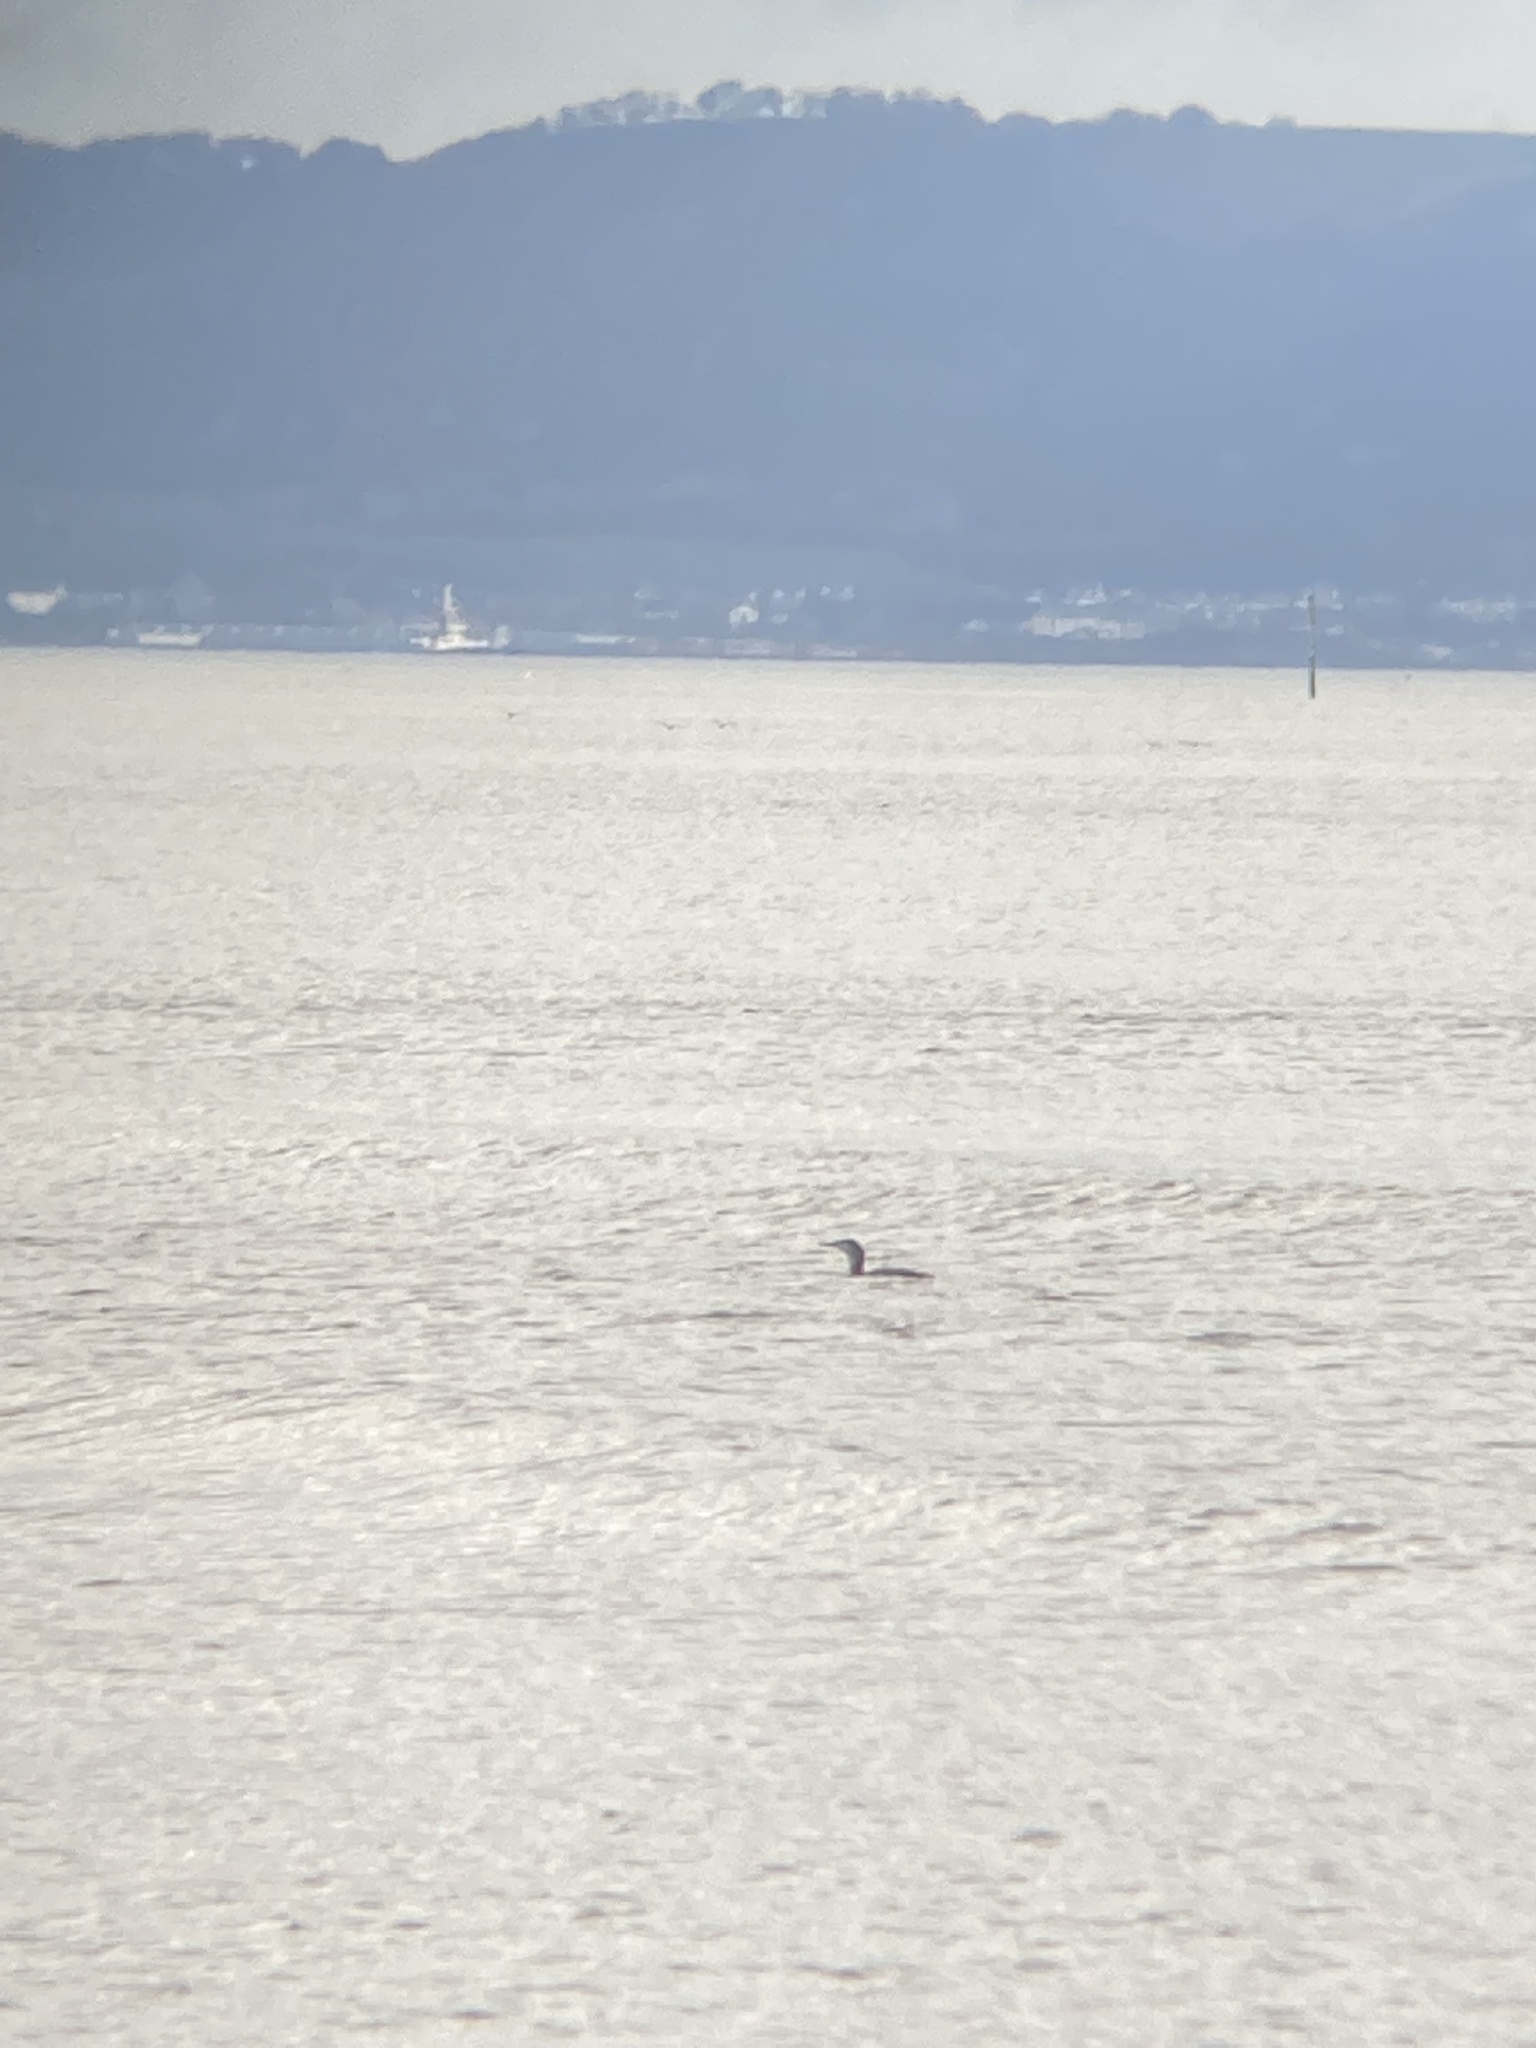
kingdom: Animalia
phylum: Chordata
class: Aves
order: Gaviiformes
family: Gaviidae
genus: Gavia
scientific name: Gavia stellata
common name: Red-throated loon
